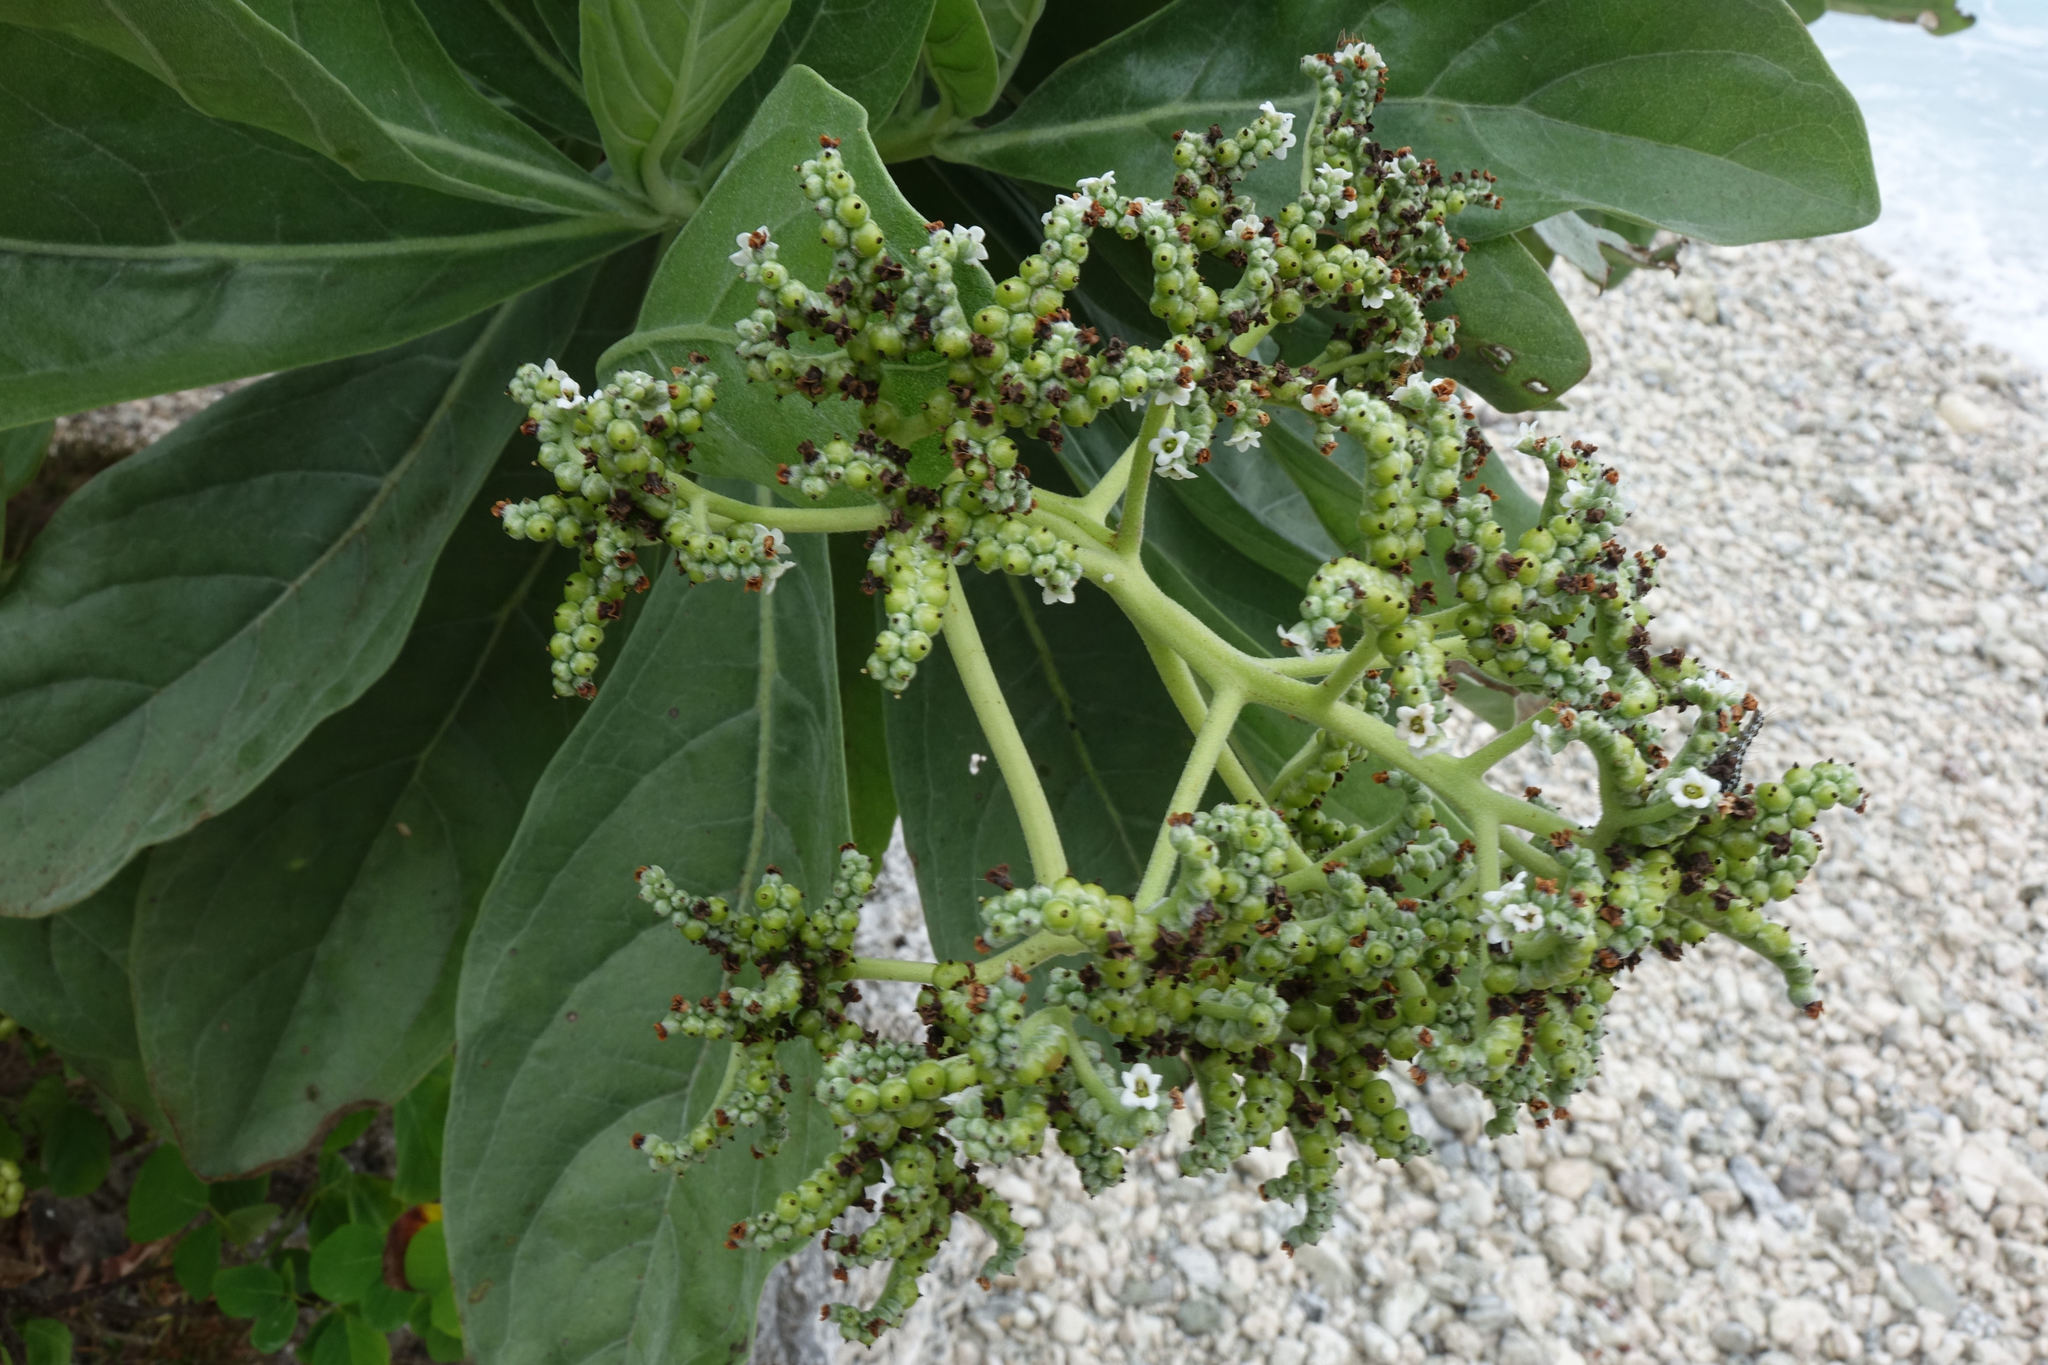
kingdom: Plantae
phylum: Tracheophyta
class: Magnoliopsida
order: Boraginales
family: Heliotropiaceae
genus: Heliotropium
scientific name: Heliotropium velutinum
